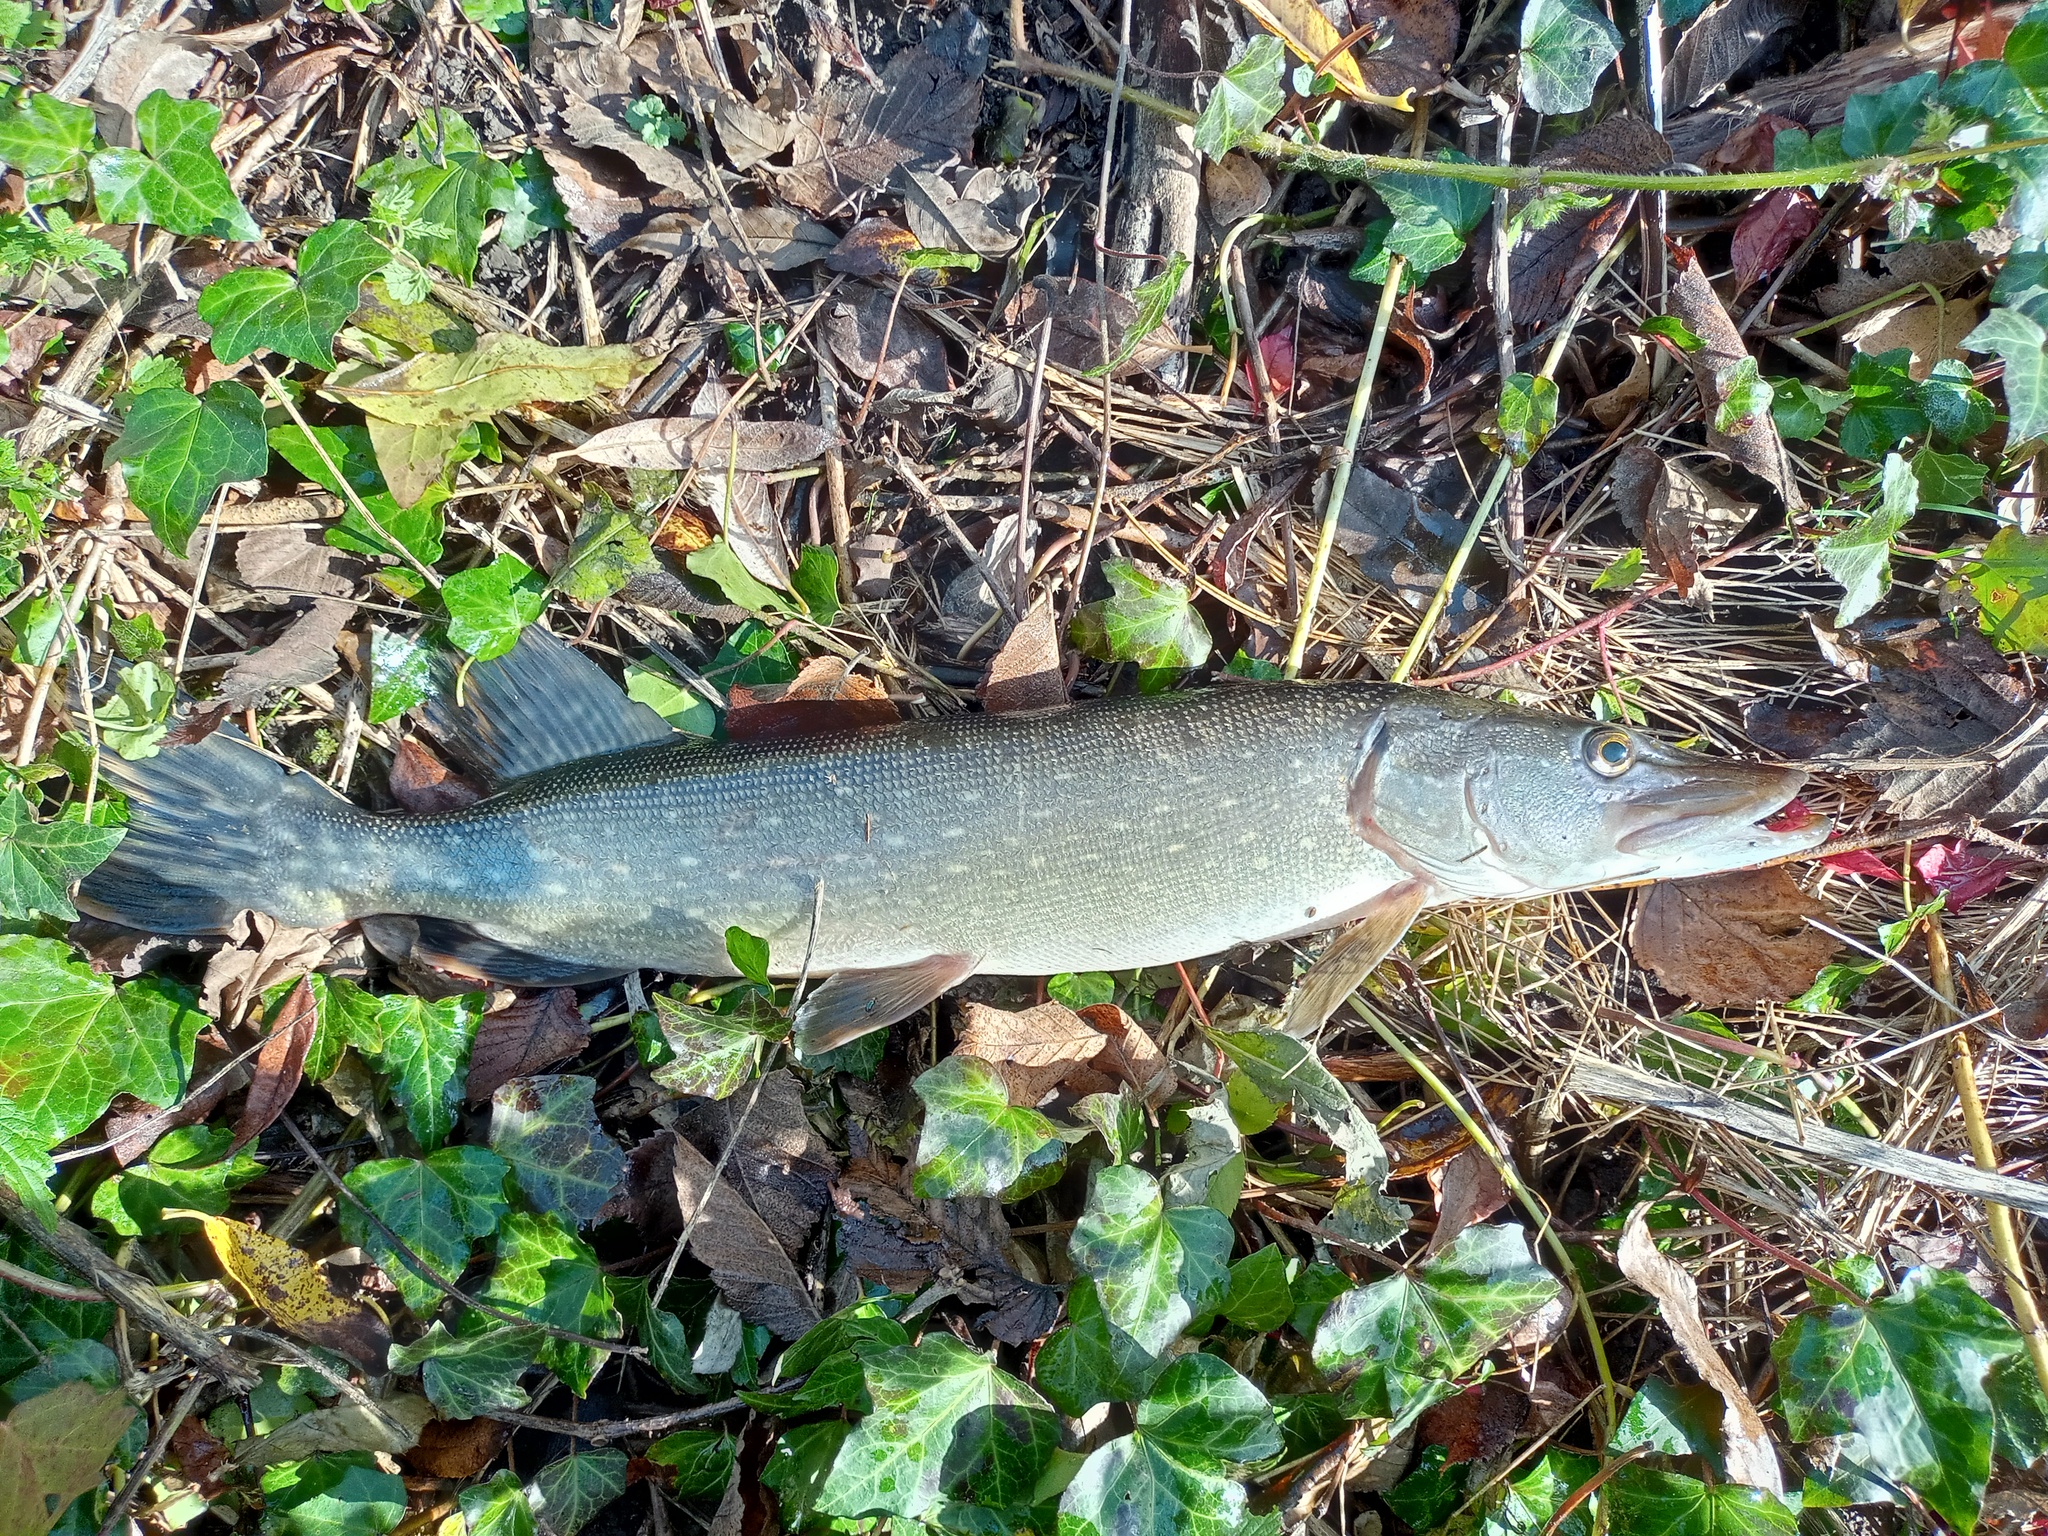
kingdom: Animalia
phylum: Chordata
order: Esociformes
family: Esocidae
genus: Esox
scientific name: Esox lucius
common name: Northern pike
